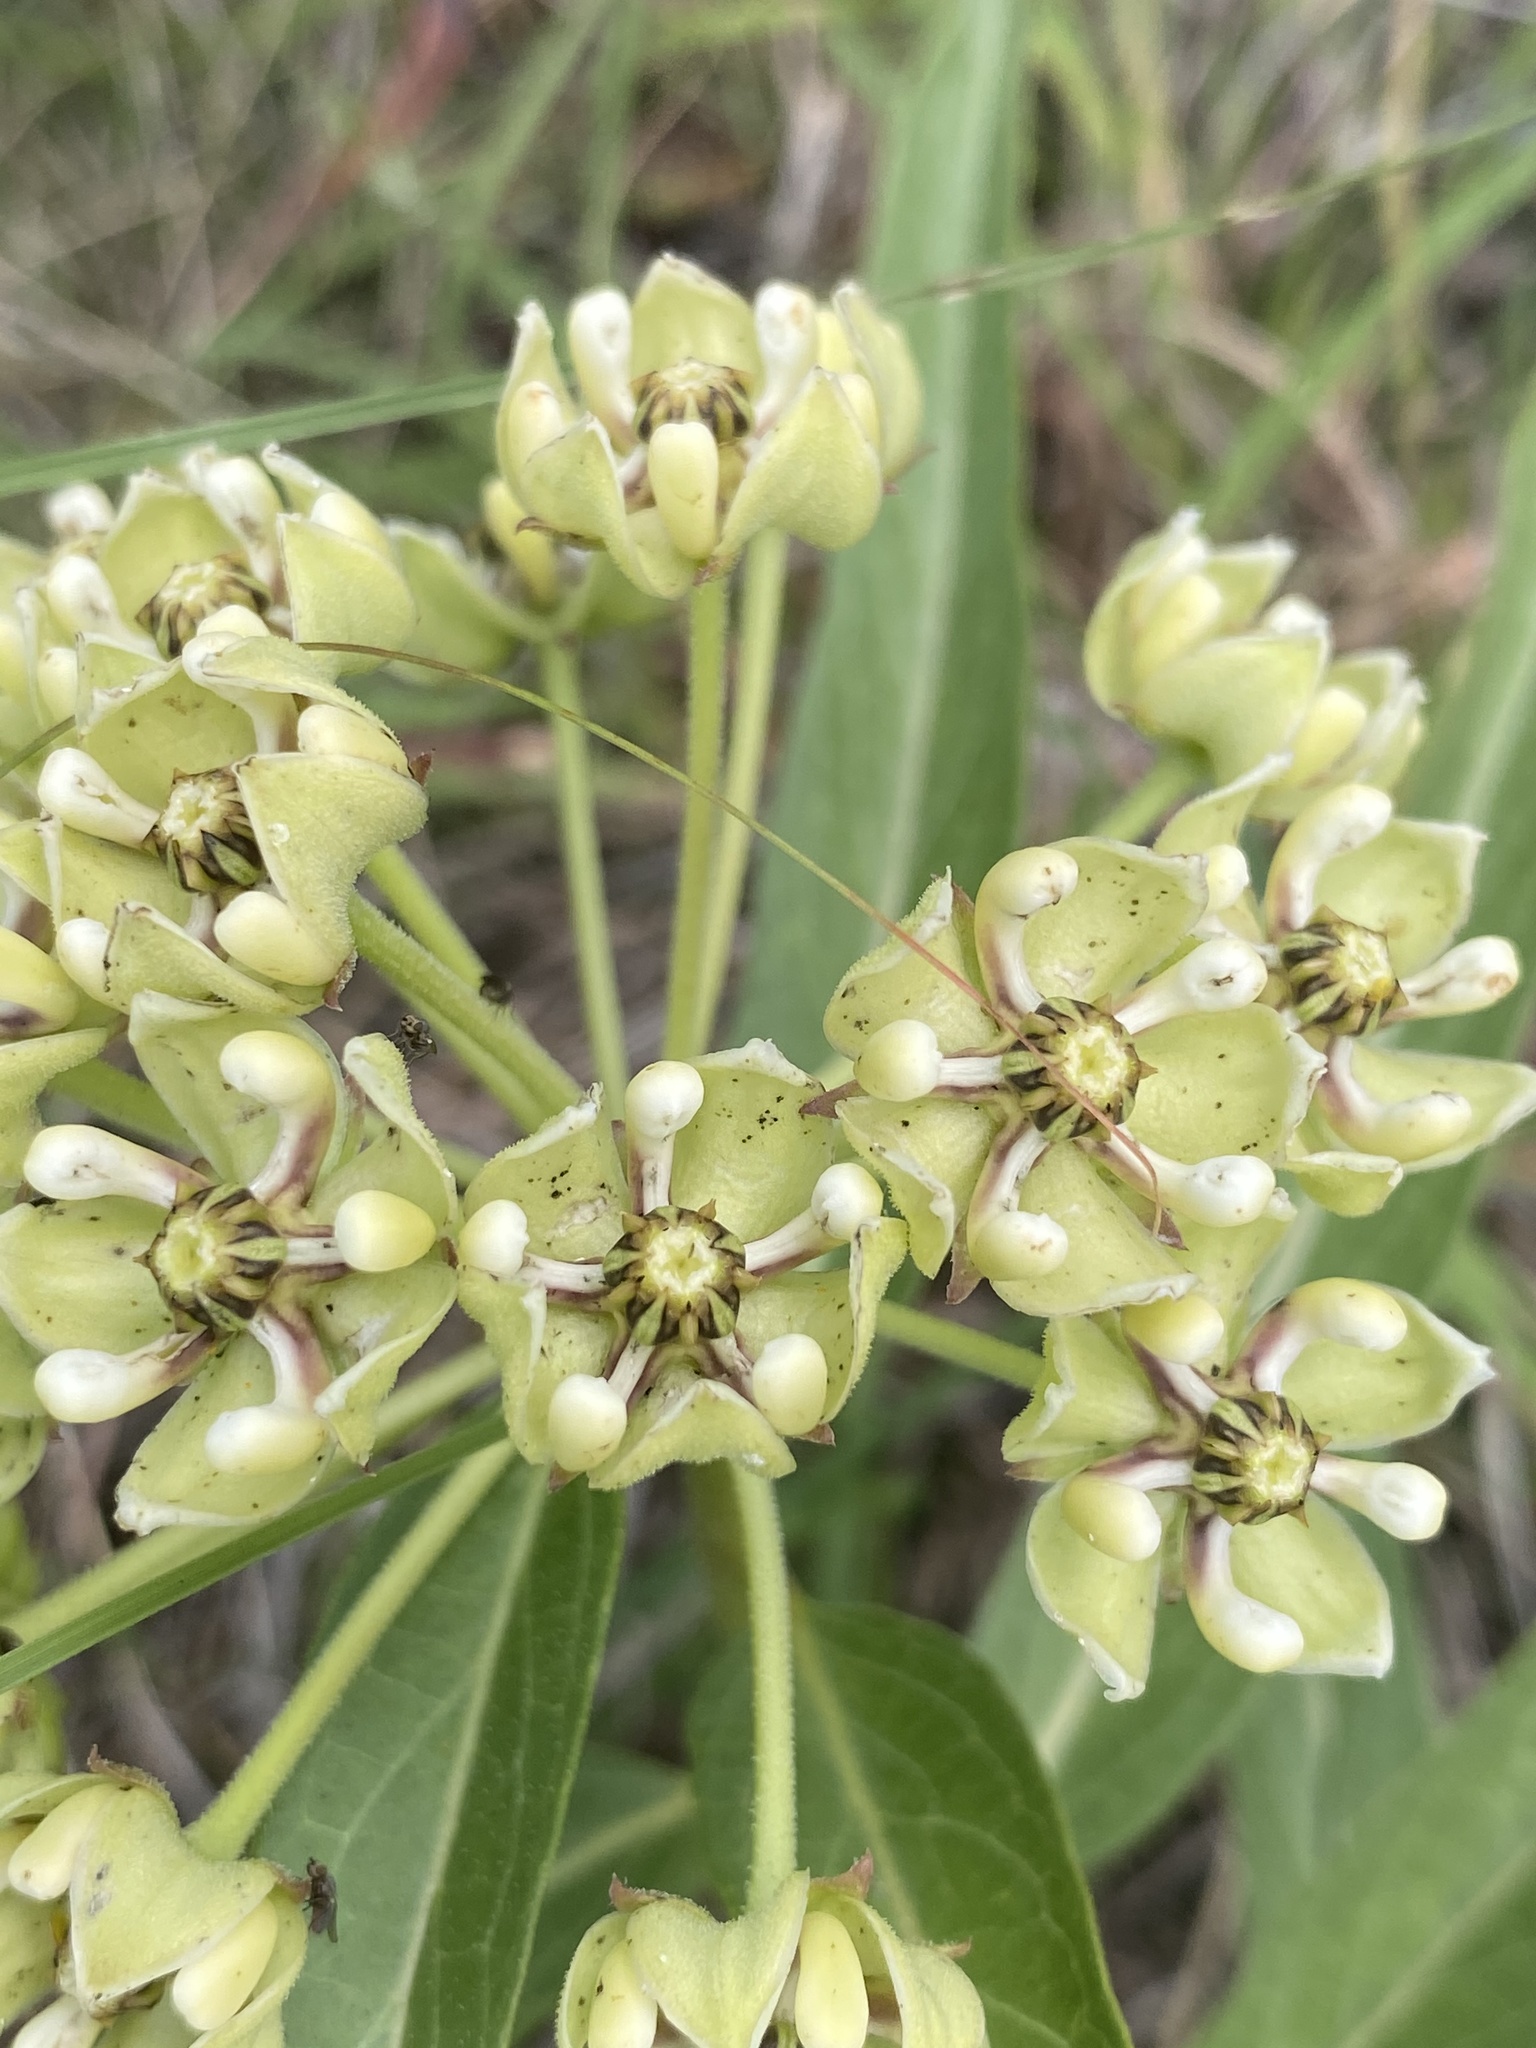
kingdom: Plantae
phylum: Tracheophyta
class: Magnoliopsida
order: Gentianales
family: Apocynaceae
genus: Asclepias
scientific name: Asclepias asperula
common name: Antelope horns
